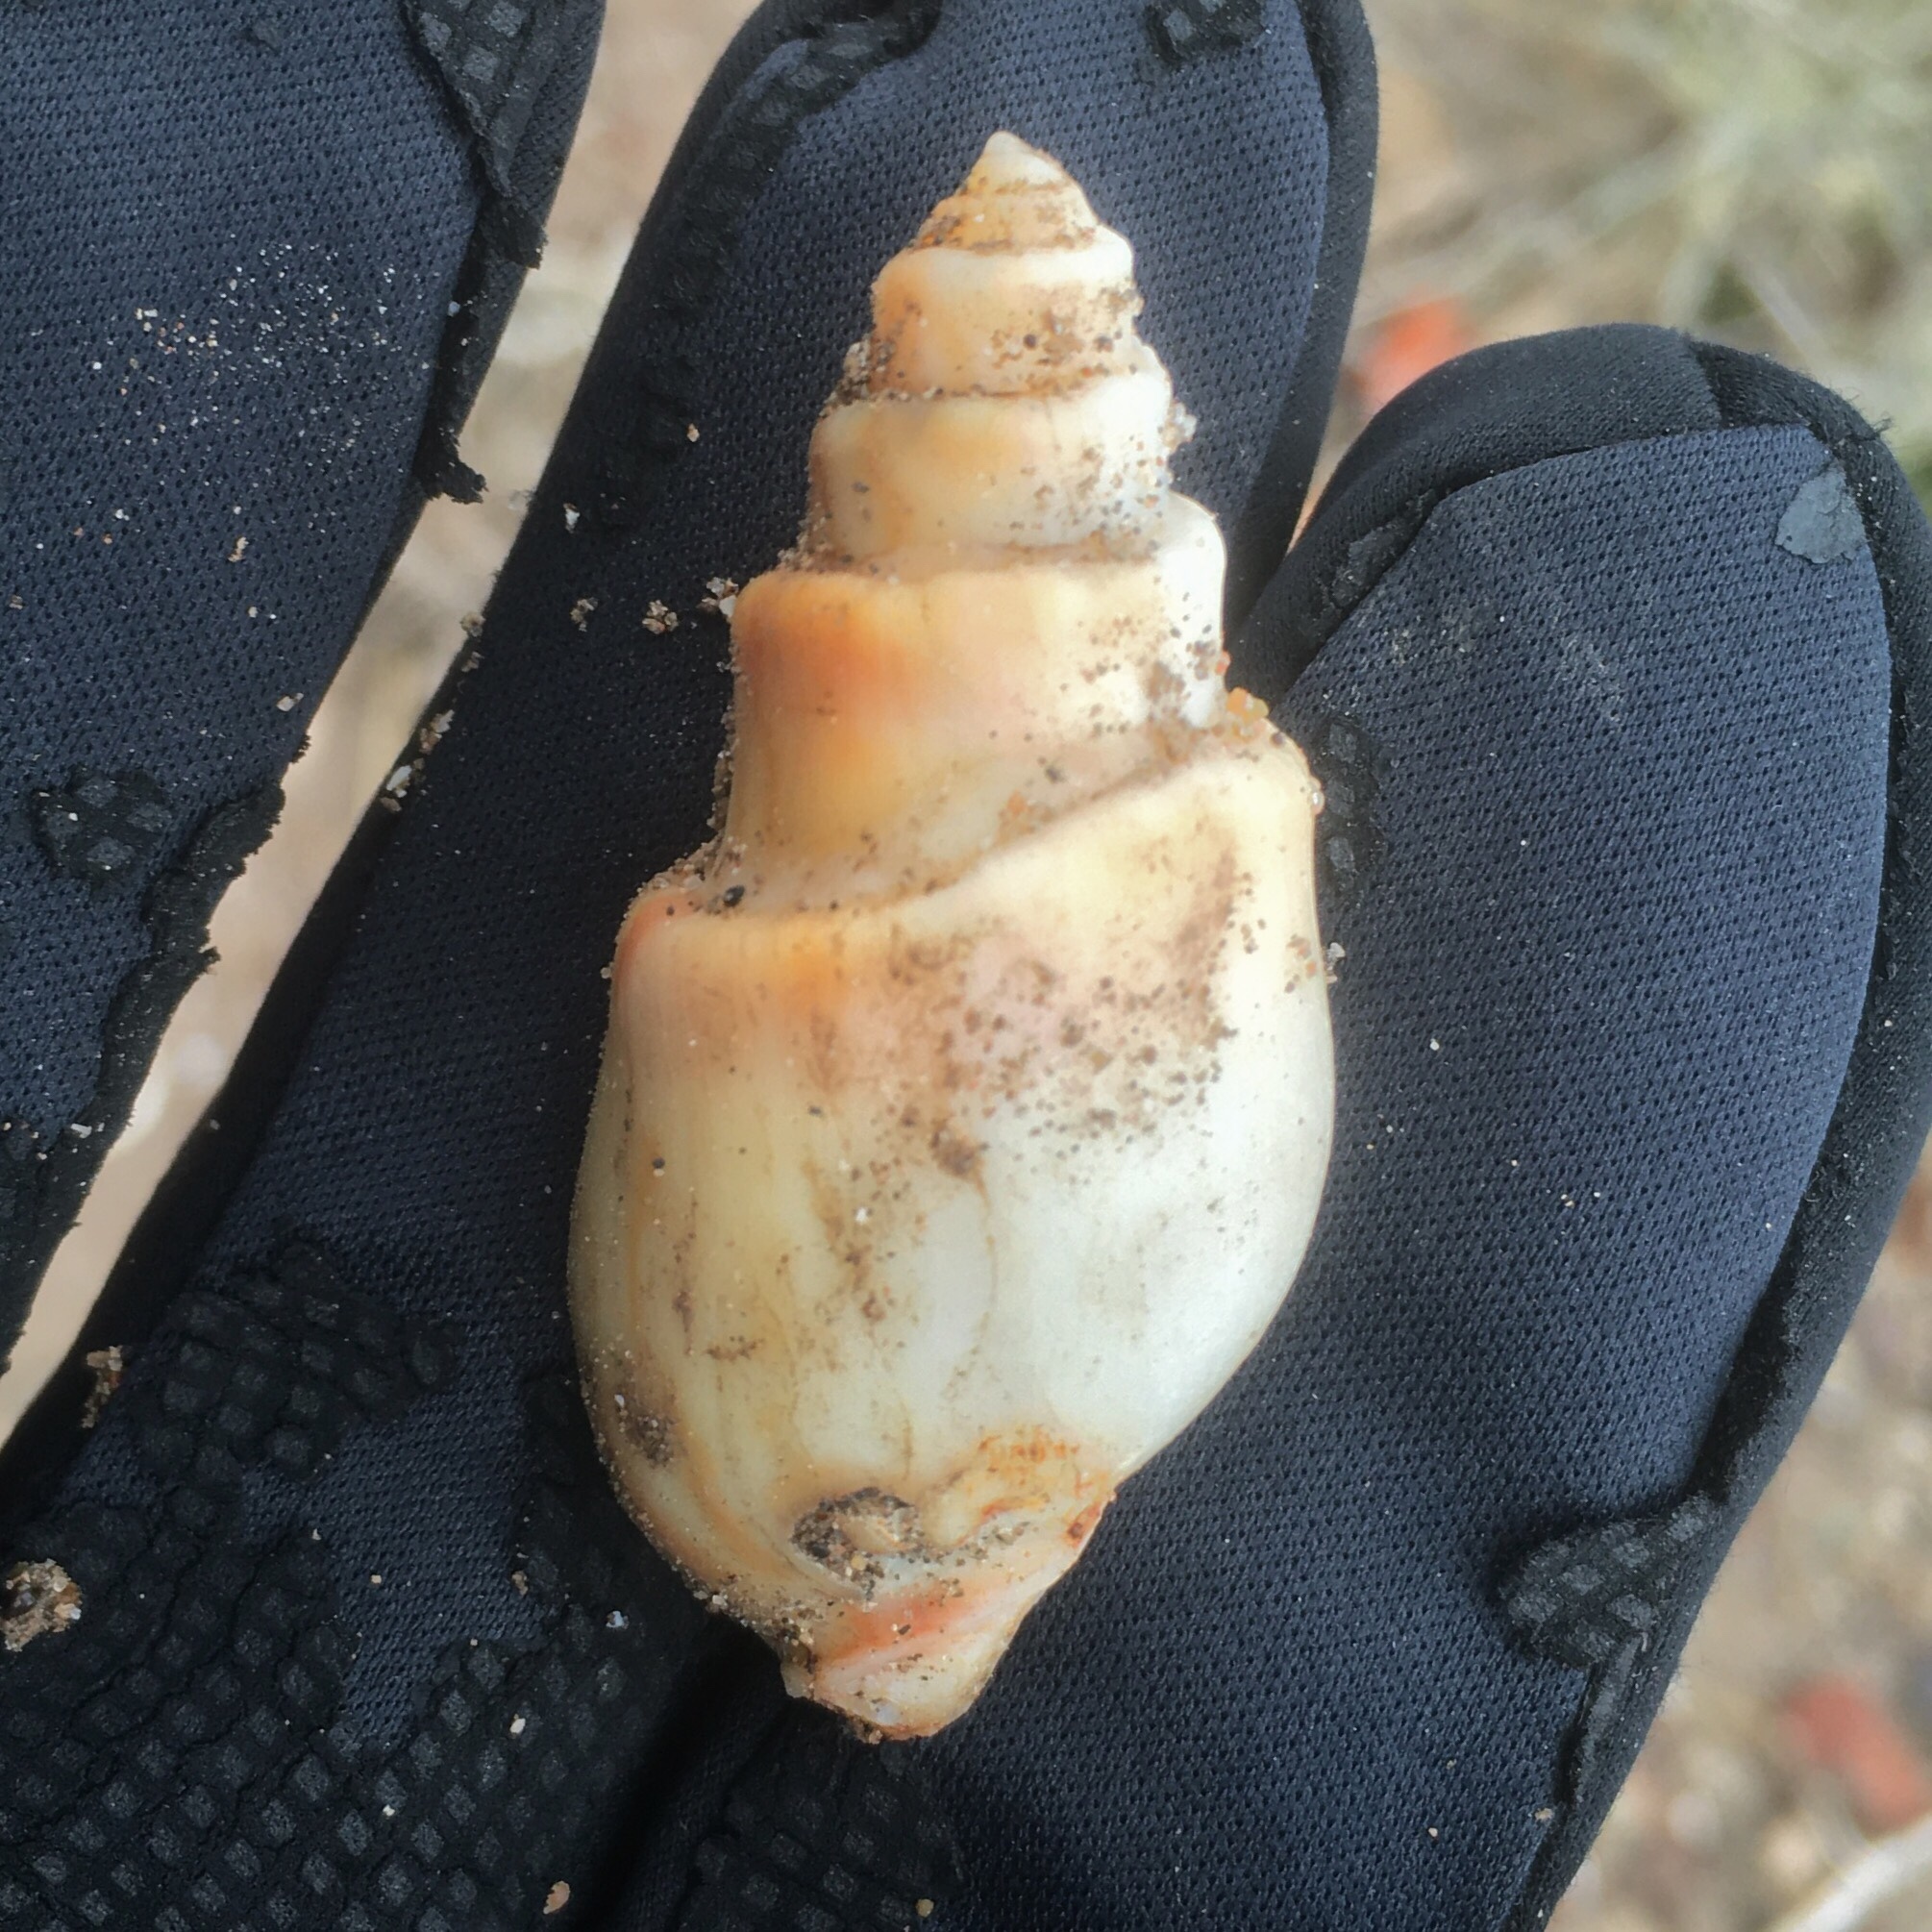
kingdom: Animalia
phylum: Mollusca
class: Gastropoda
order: Neogastropoda
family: Buccinanopsidae
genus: Buccinanops
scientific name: Buccinanops cochlidium
